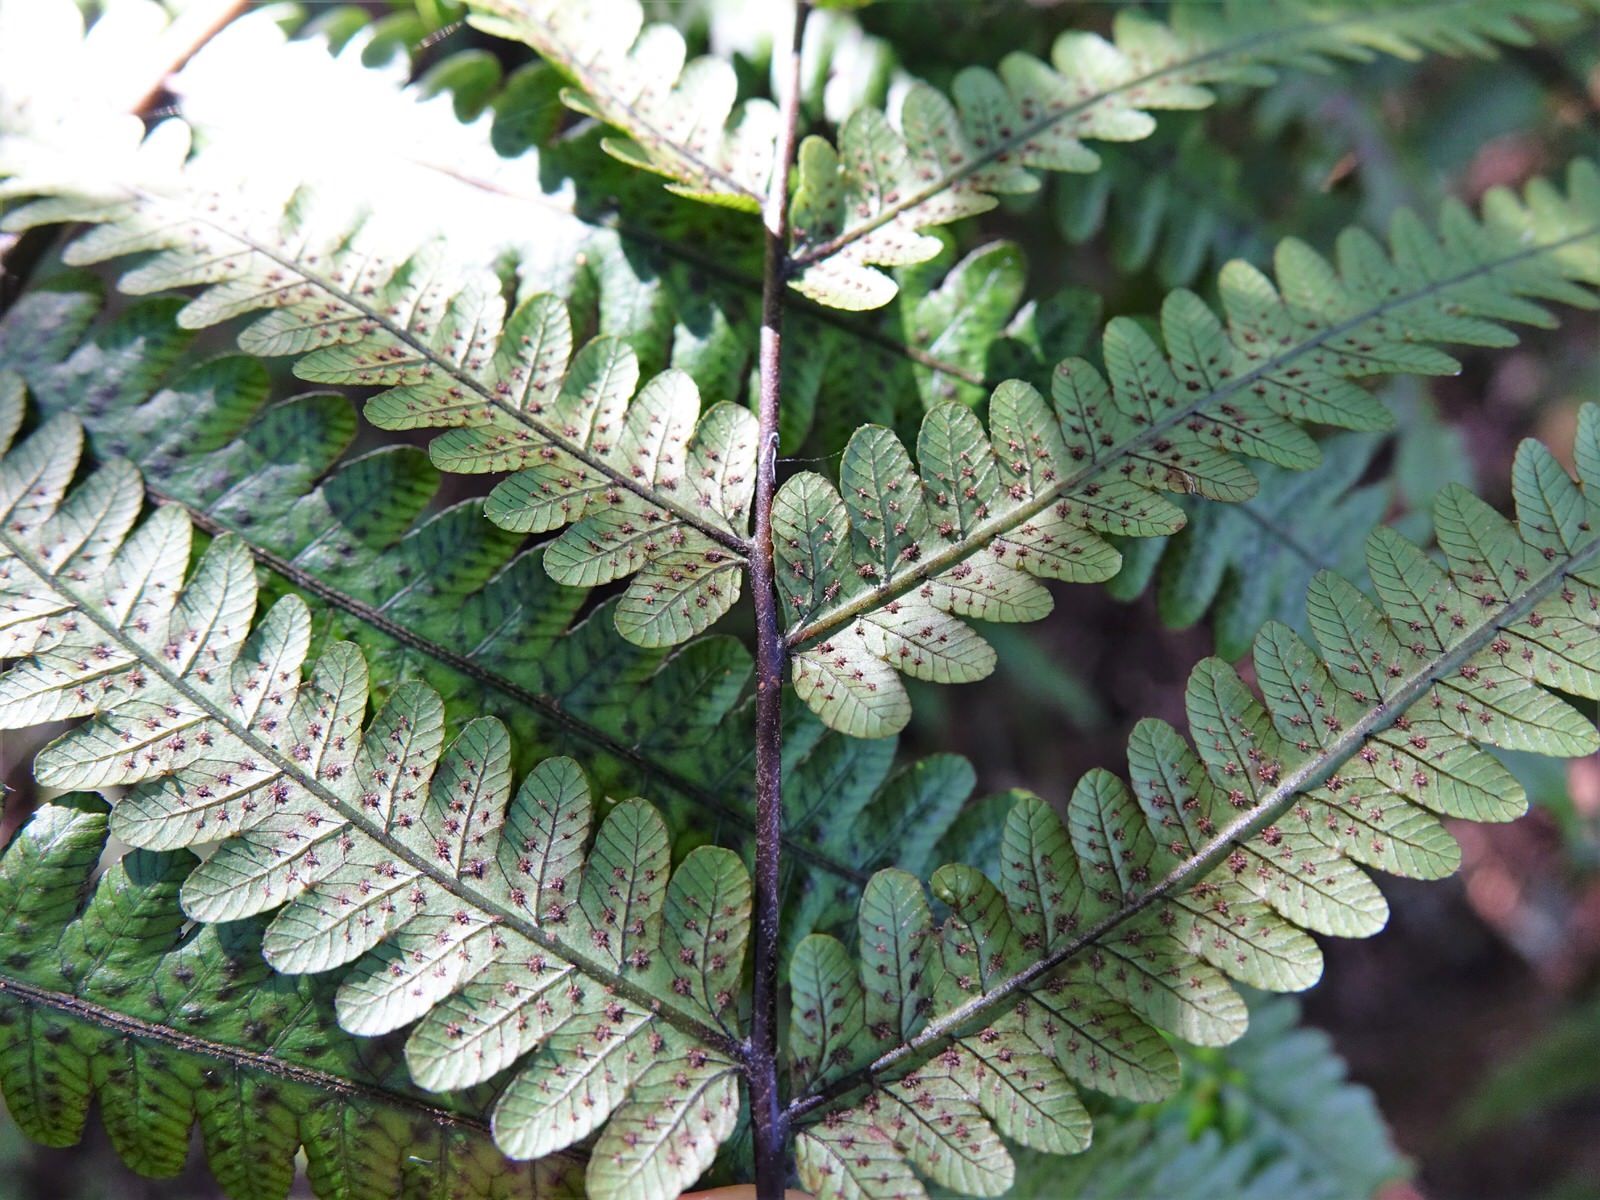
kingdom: Plantae
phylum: Tracheophyta
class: Polypodiopsida
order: Polypodiales
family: Thelypteridaceae
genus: Pakau
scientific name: Pakau pennigera
